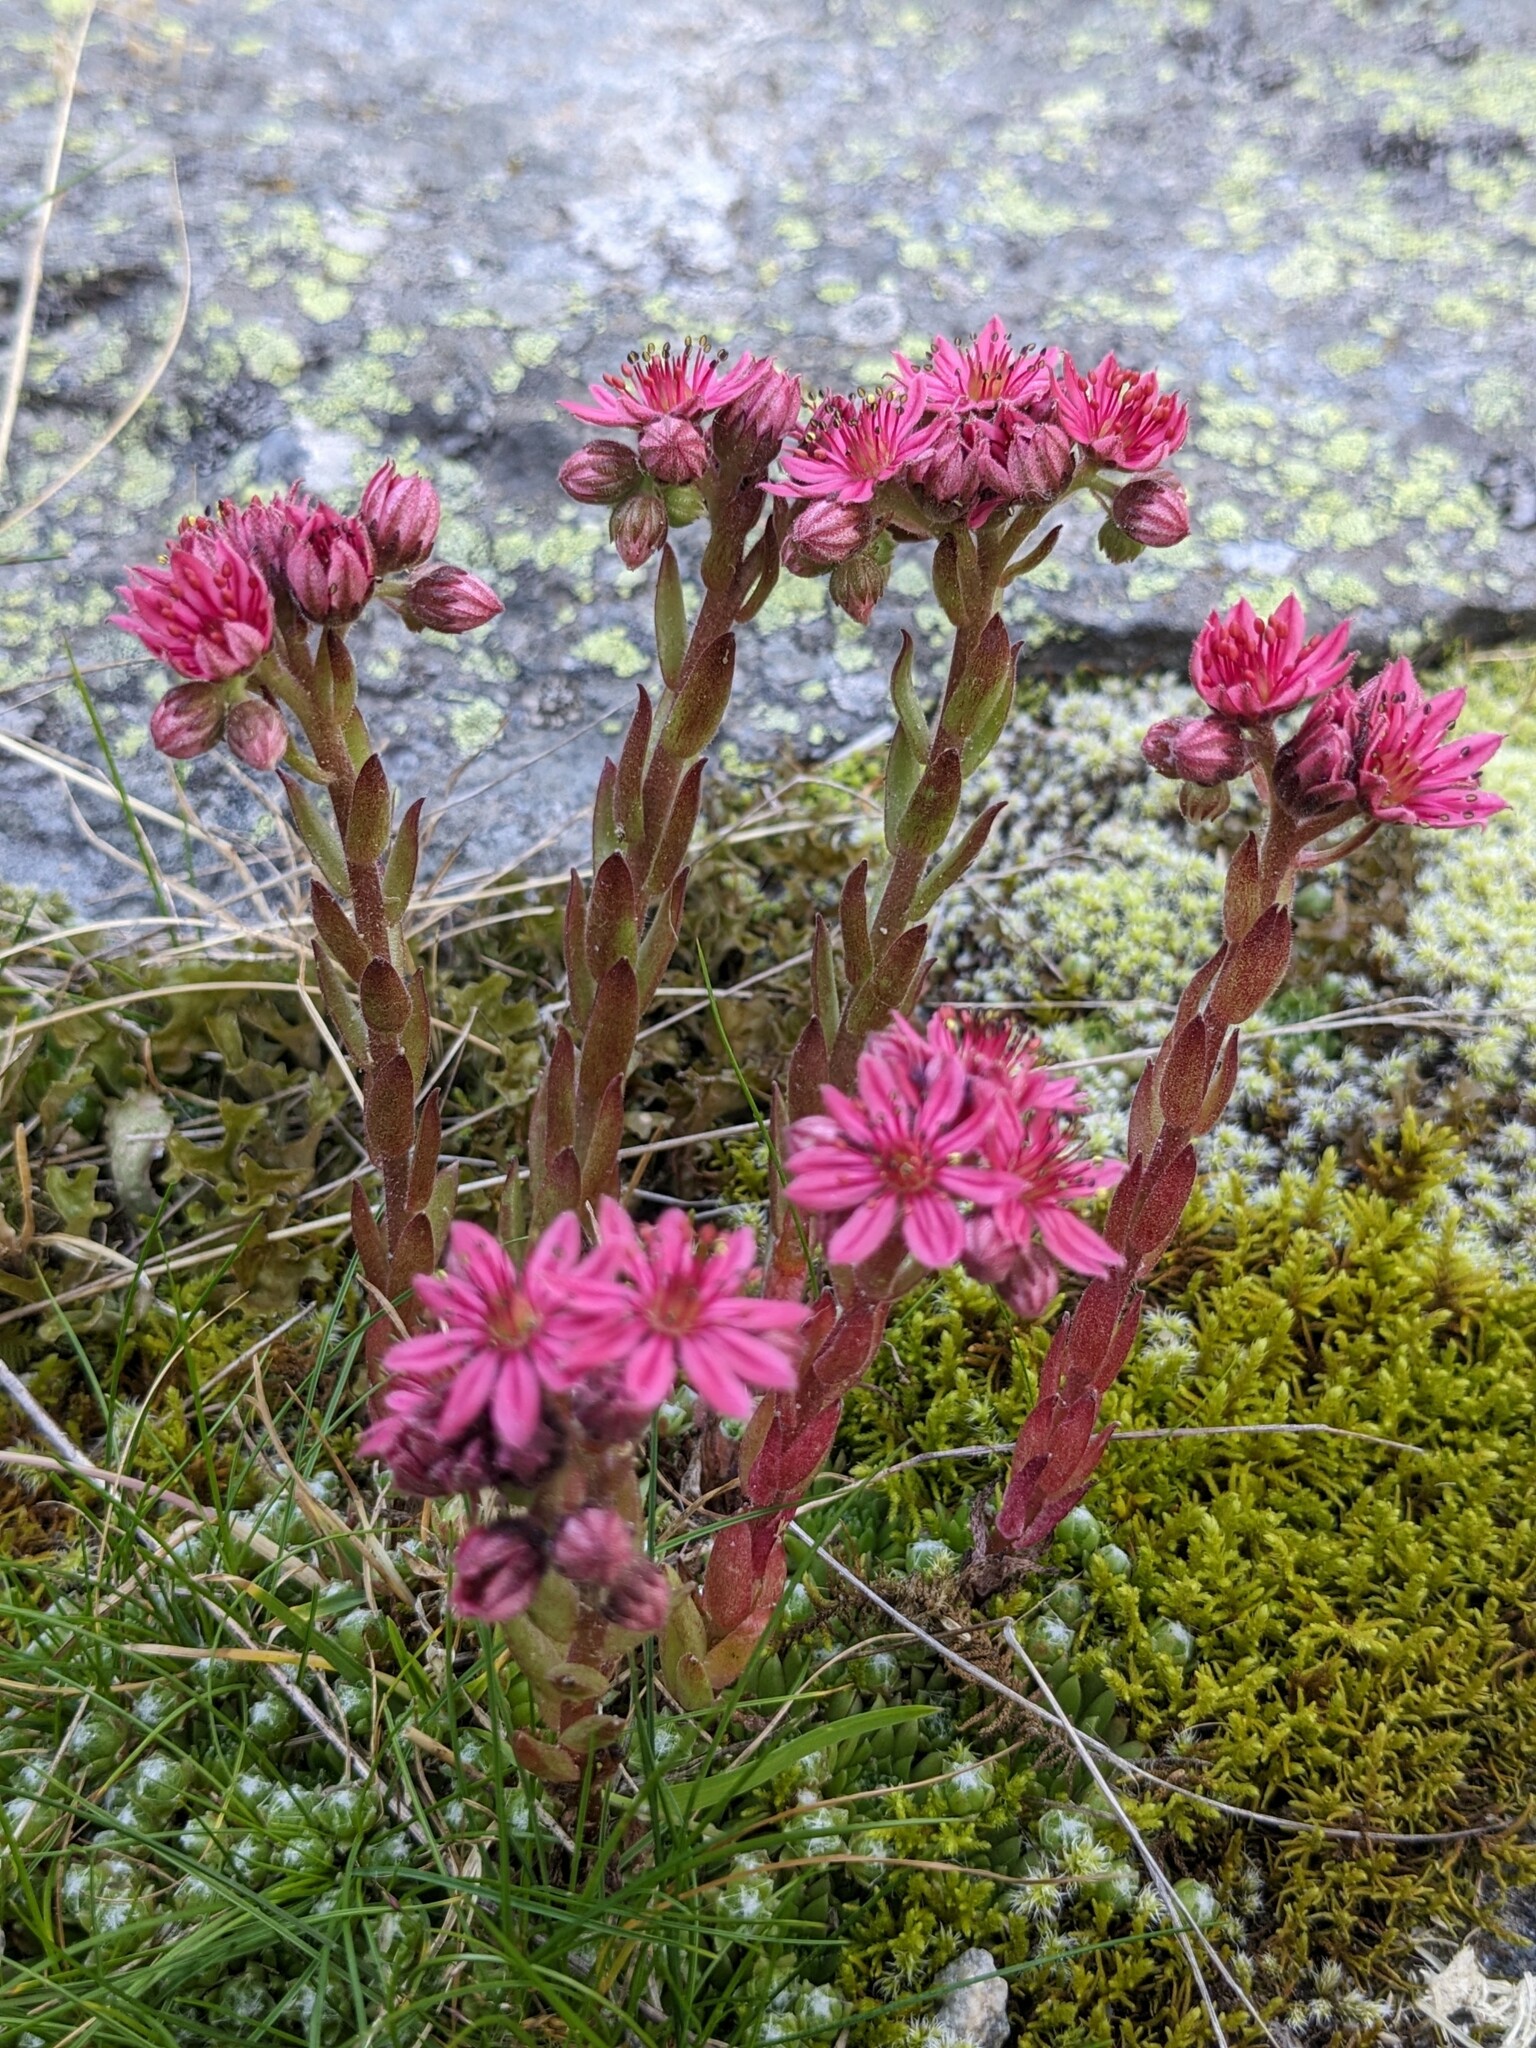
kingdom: Plantae
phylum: Tracheophyta
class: Magnoliopsida
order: Saxifragales
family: Crassulaceae
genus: Sempervivum
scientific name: Sempervivum arachnoideum
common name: Cobweb house-leek
